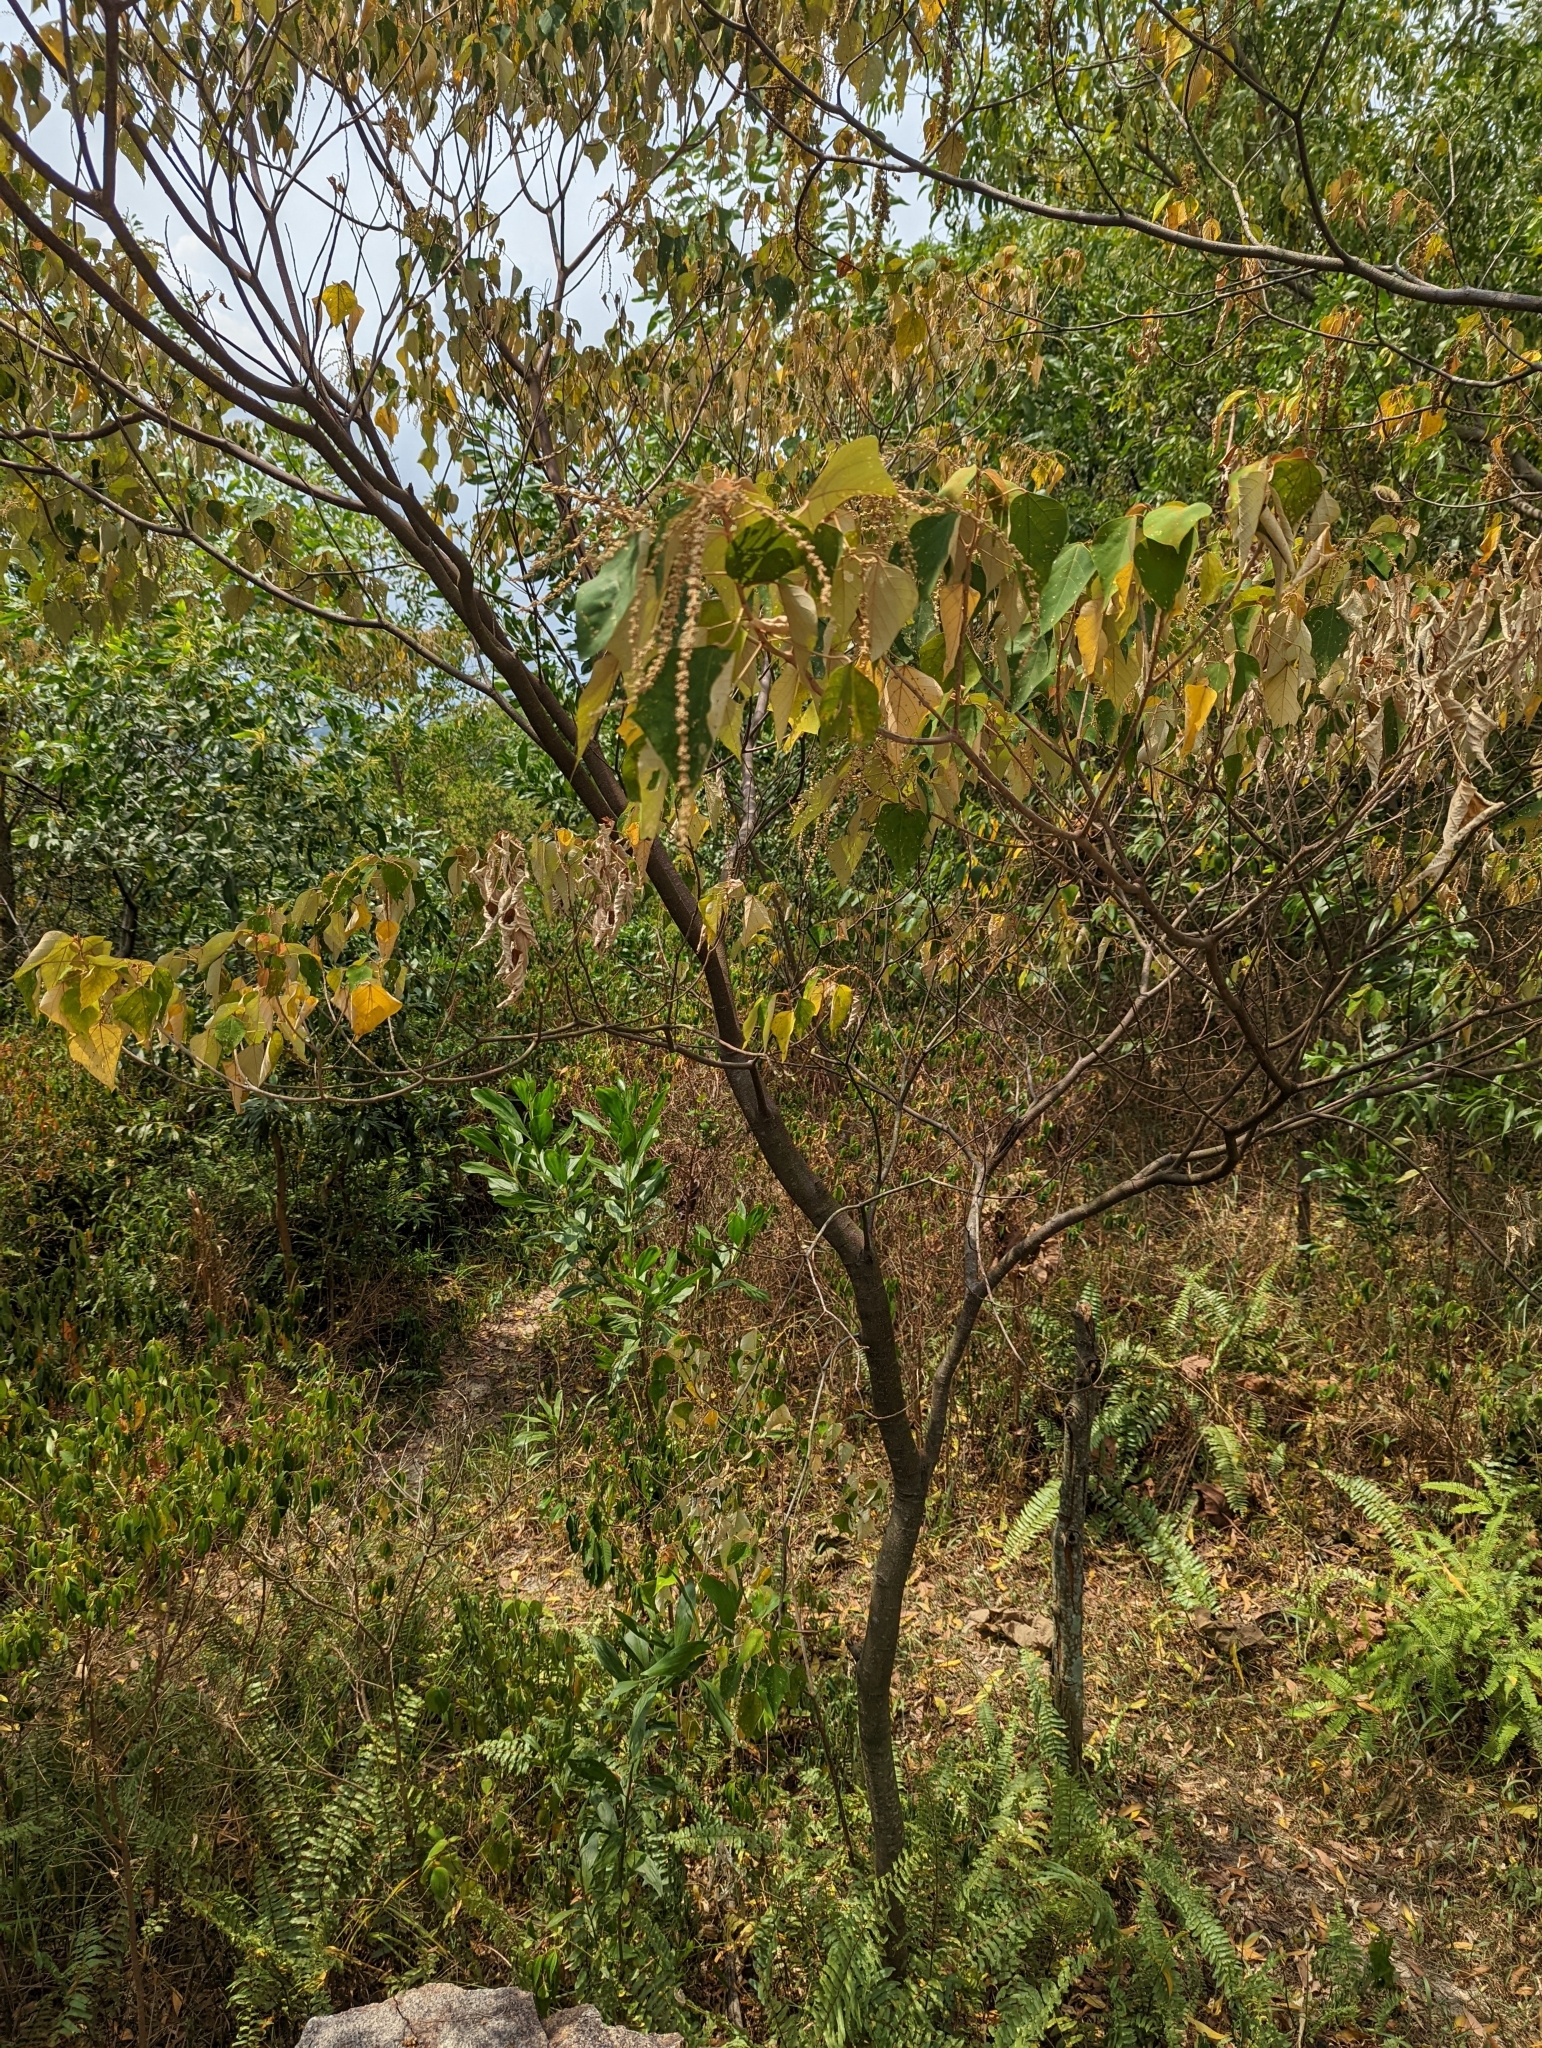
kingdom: Plantae
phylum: Tracheophyta
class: Magnoliopsida
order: Malpighiales
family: Euphorbiaceae
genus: Mallotus
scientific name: Mallotus paniculatus
